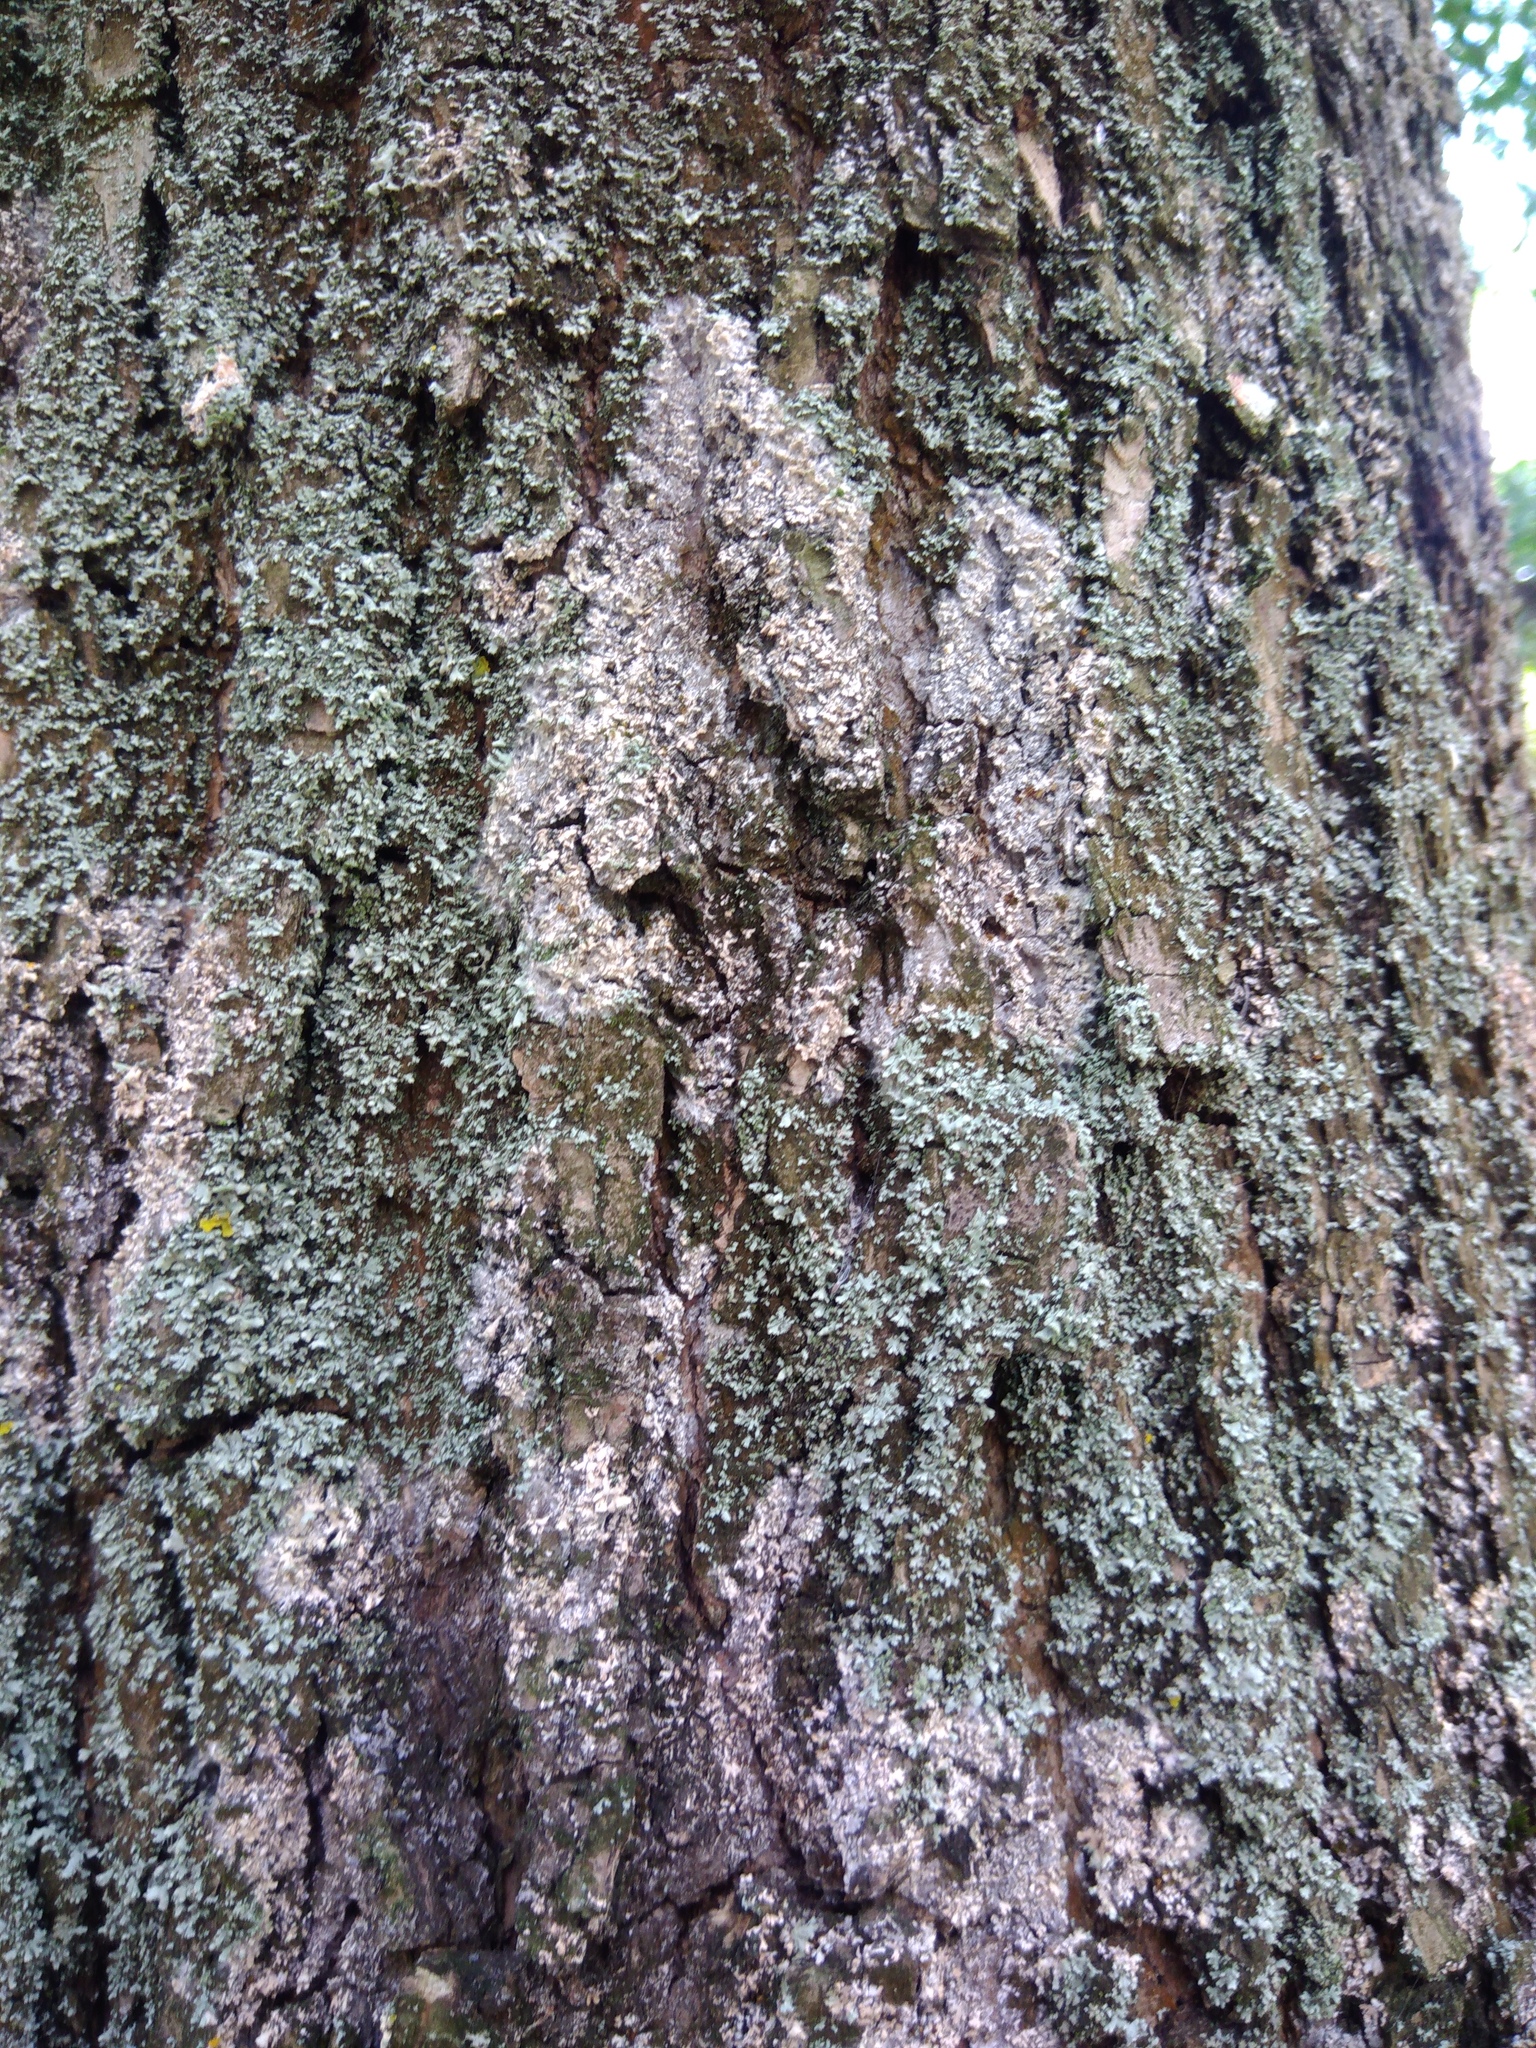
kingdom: Fungi
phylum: Basidiomycota
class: Agaricomycetes
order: Atheliales
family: Atheliaceae
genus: Athelia
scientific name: Athelia arachnoidea
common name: Candelabra duster
